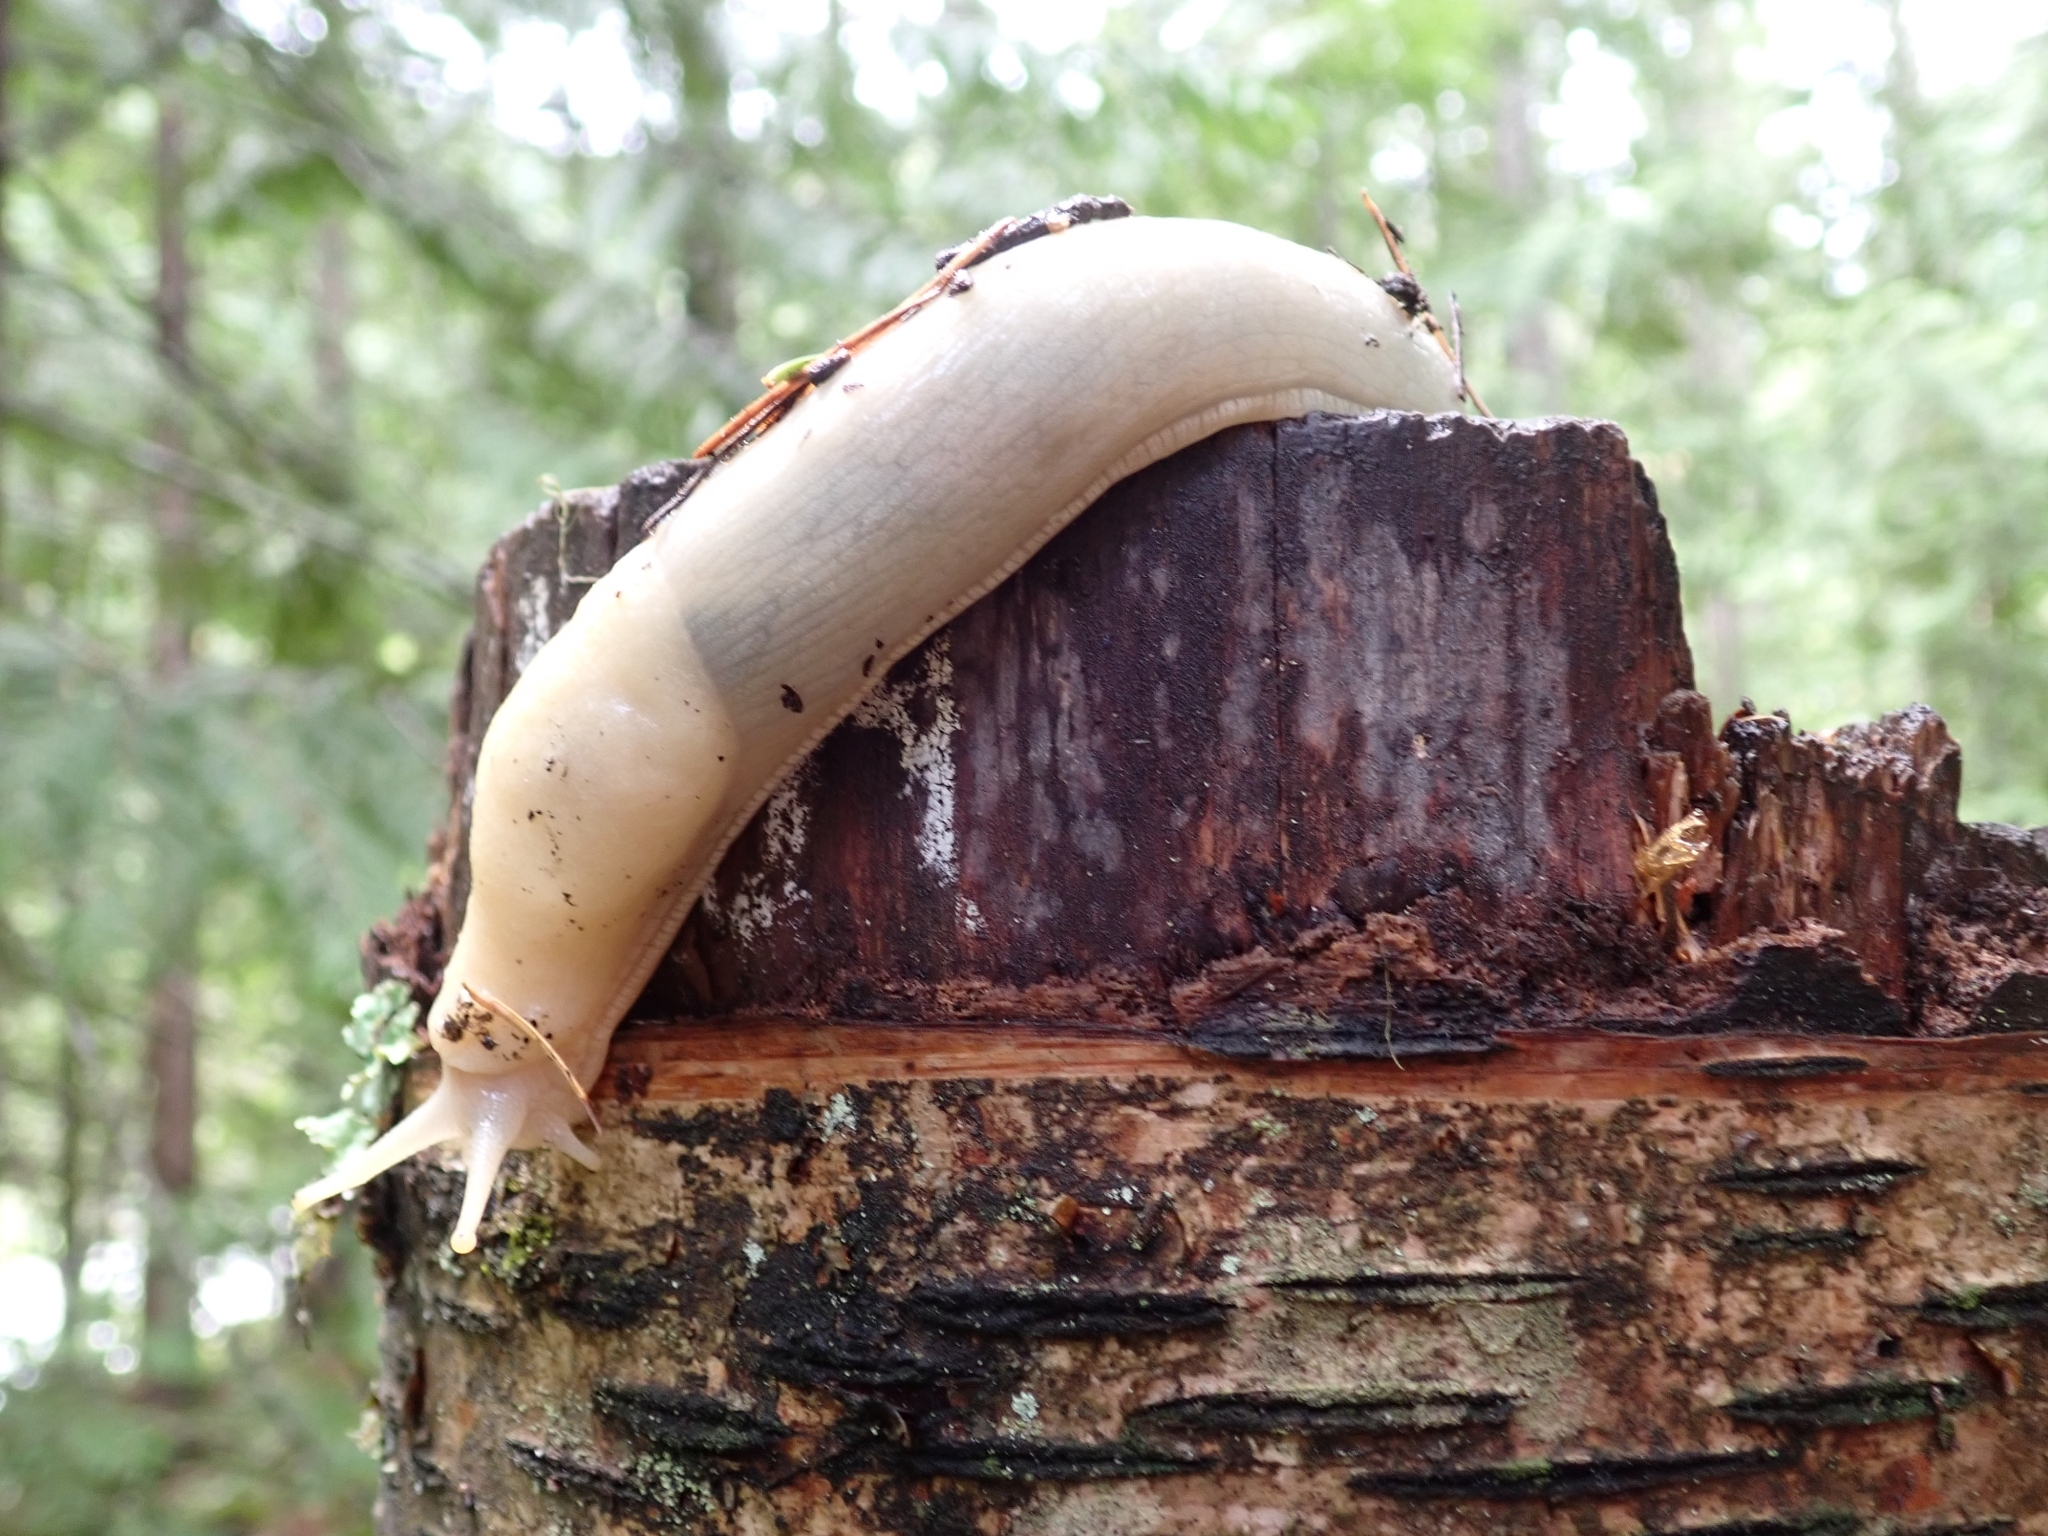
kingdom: Animalia
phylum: Mollusca
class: Gastropoda
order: Stylommatophora
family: Ariolimacidae
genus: Ariolimax
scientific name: Ariolimax columbianus
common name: Pacific banana slug
